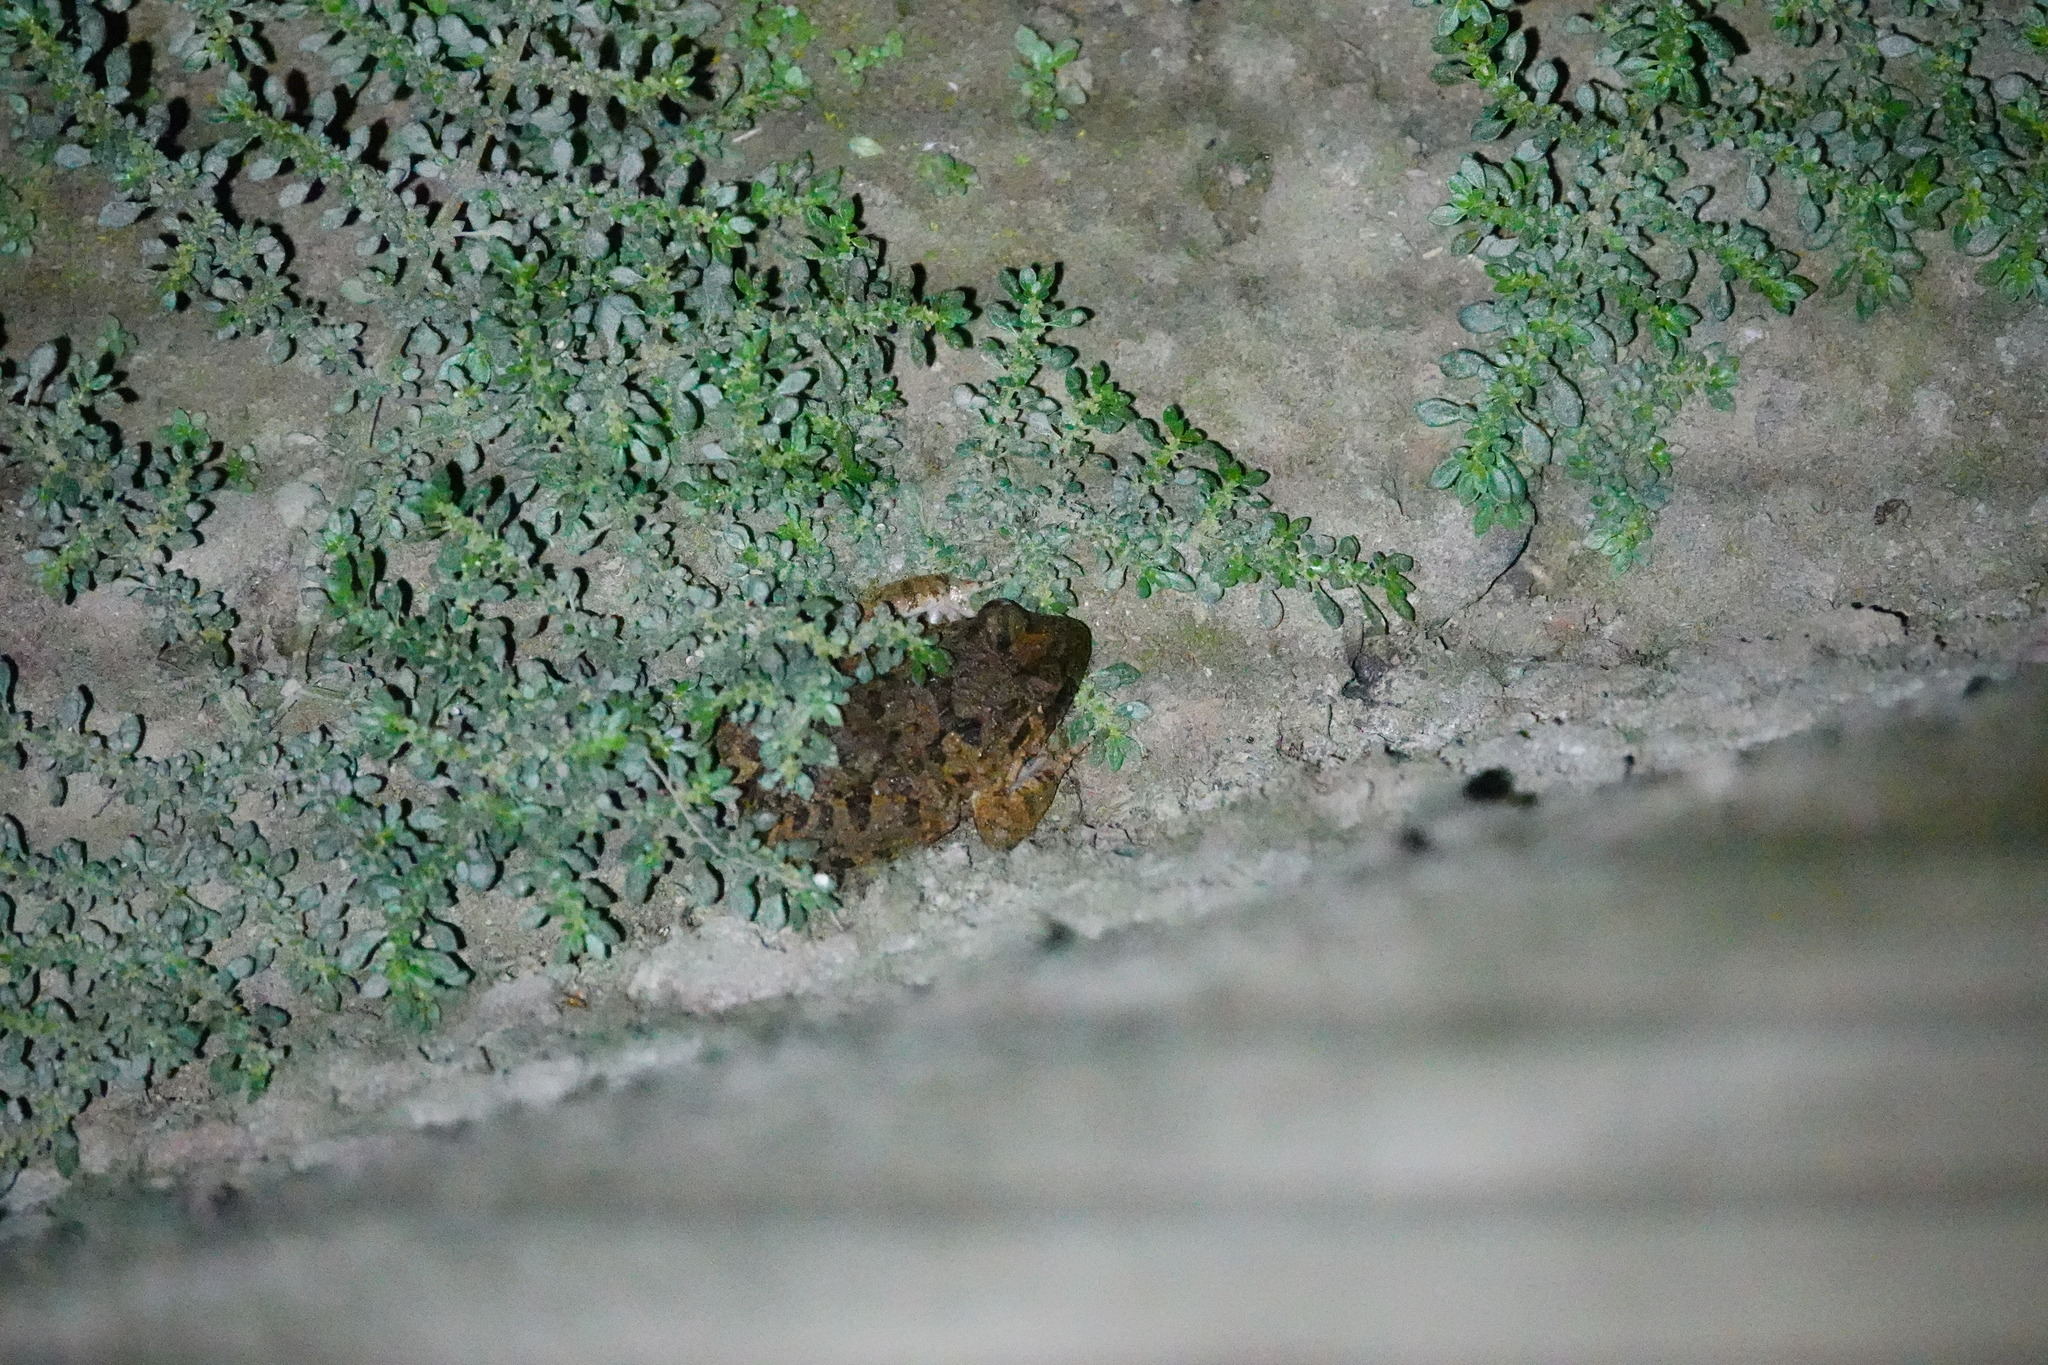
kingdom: Animalia
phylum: Chordata
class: Amphibia
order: Anura
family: Dicroglossidae
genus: Fejervarya
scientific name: Fejervarya limnocharis
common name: Asian grass frog/common pond frog/field frog/grass frog/indian rice frog
